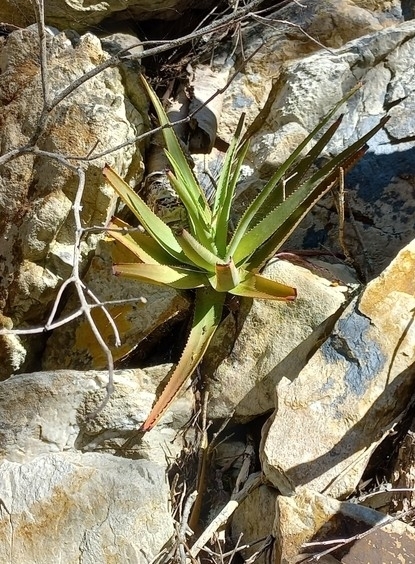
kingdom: Plantae
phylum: Tracheophyta
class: Liliopsida
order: Asparagales
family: Asphodelaceae
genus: Aloe
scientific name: Aloe succotrina
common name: Bombay aloe
